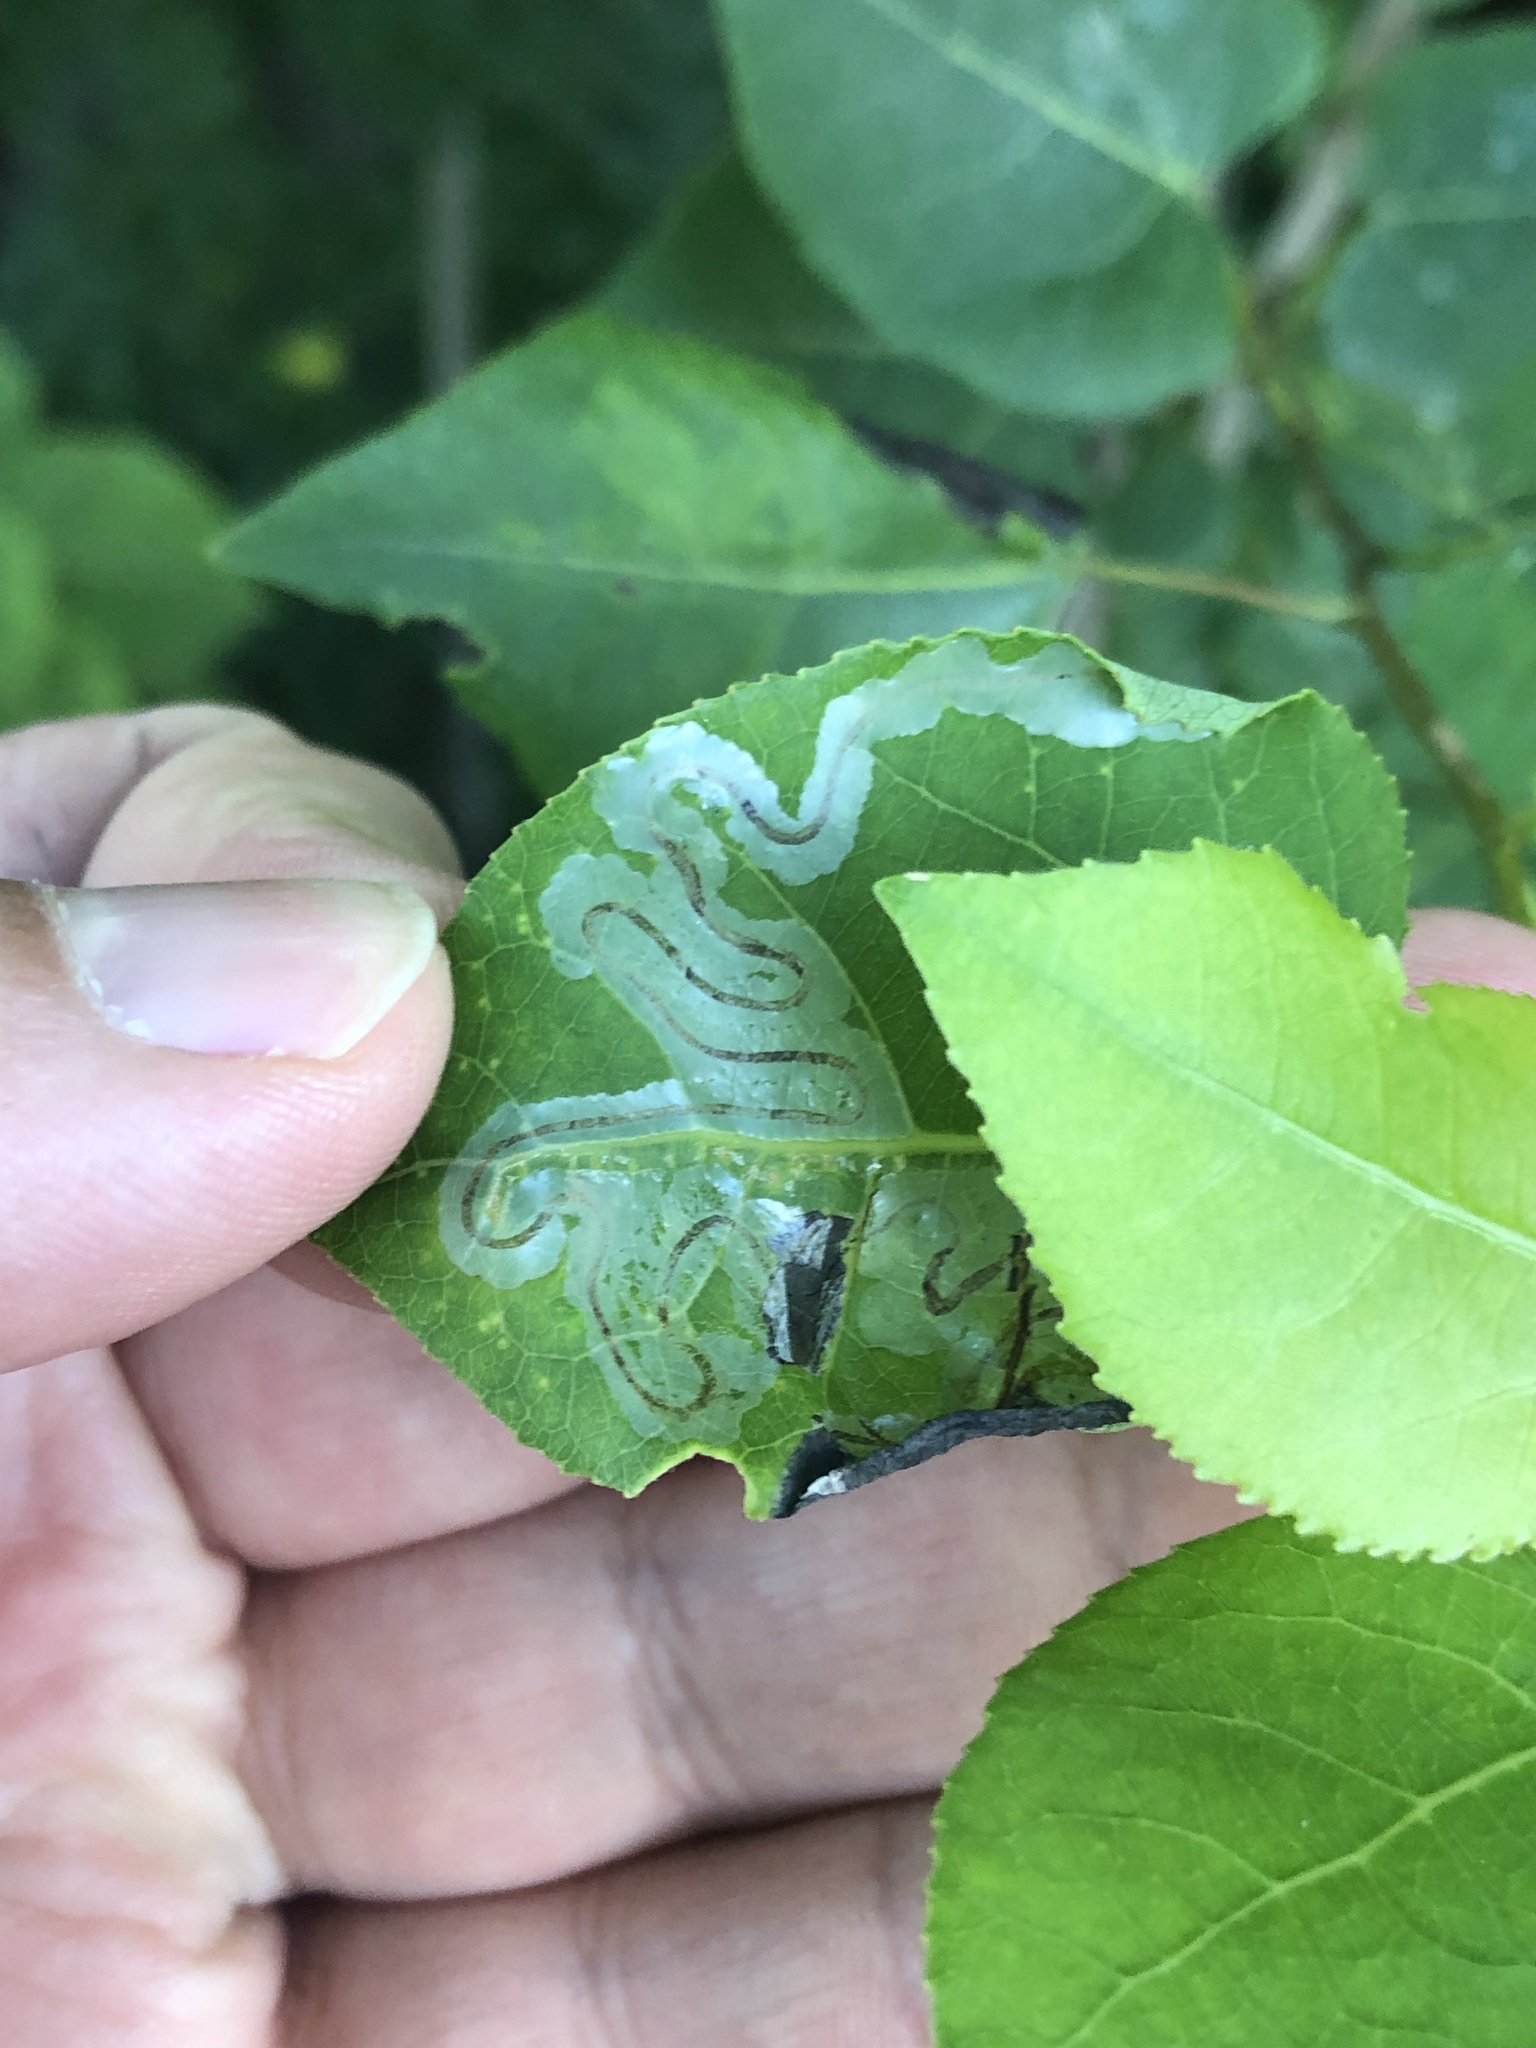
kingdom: Animalia
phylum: Arthropoda
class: Insecta
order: Lepidoptera
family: Gracillariidae
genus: Phyllocnistis
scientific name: Phyllocnistis populiella
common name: Aspen serpentine leafminer moth
